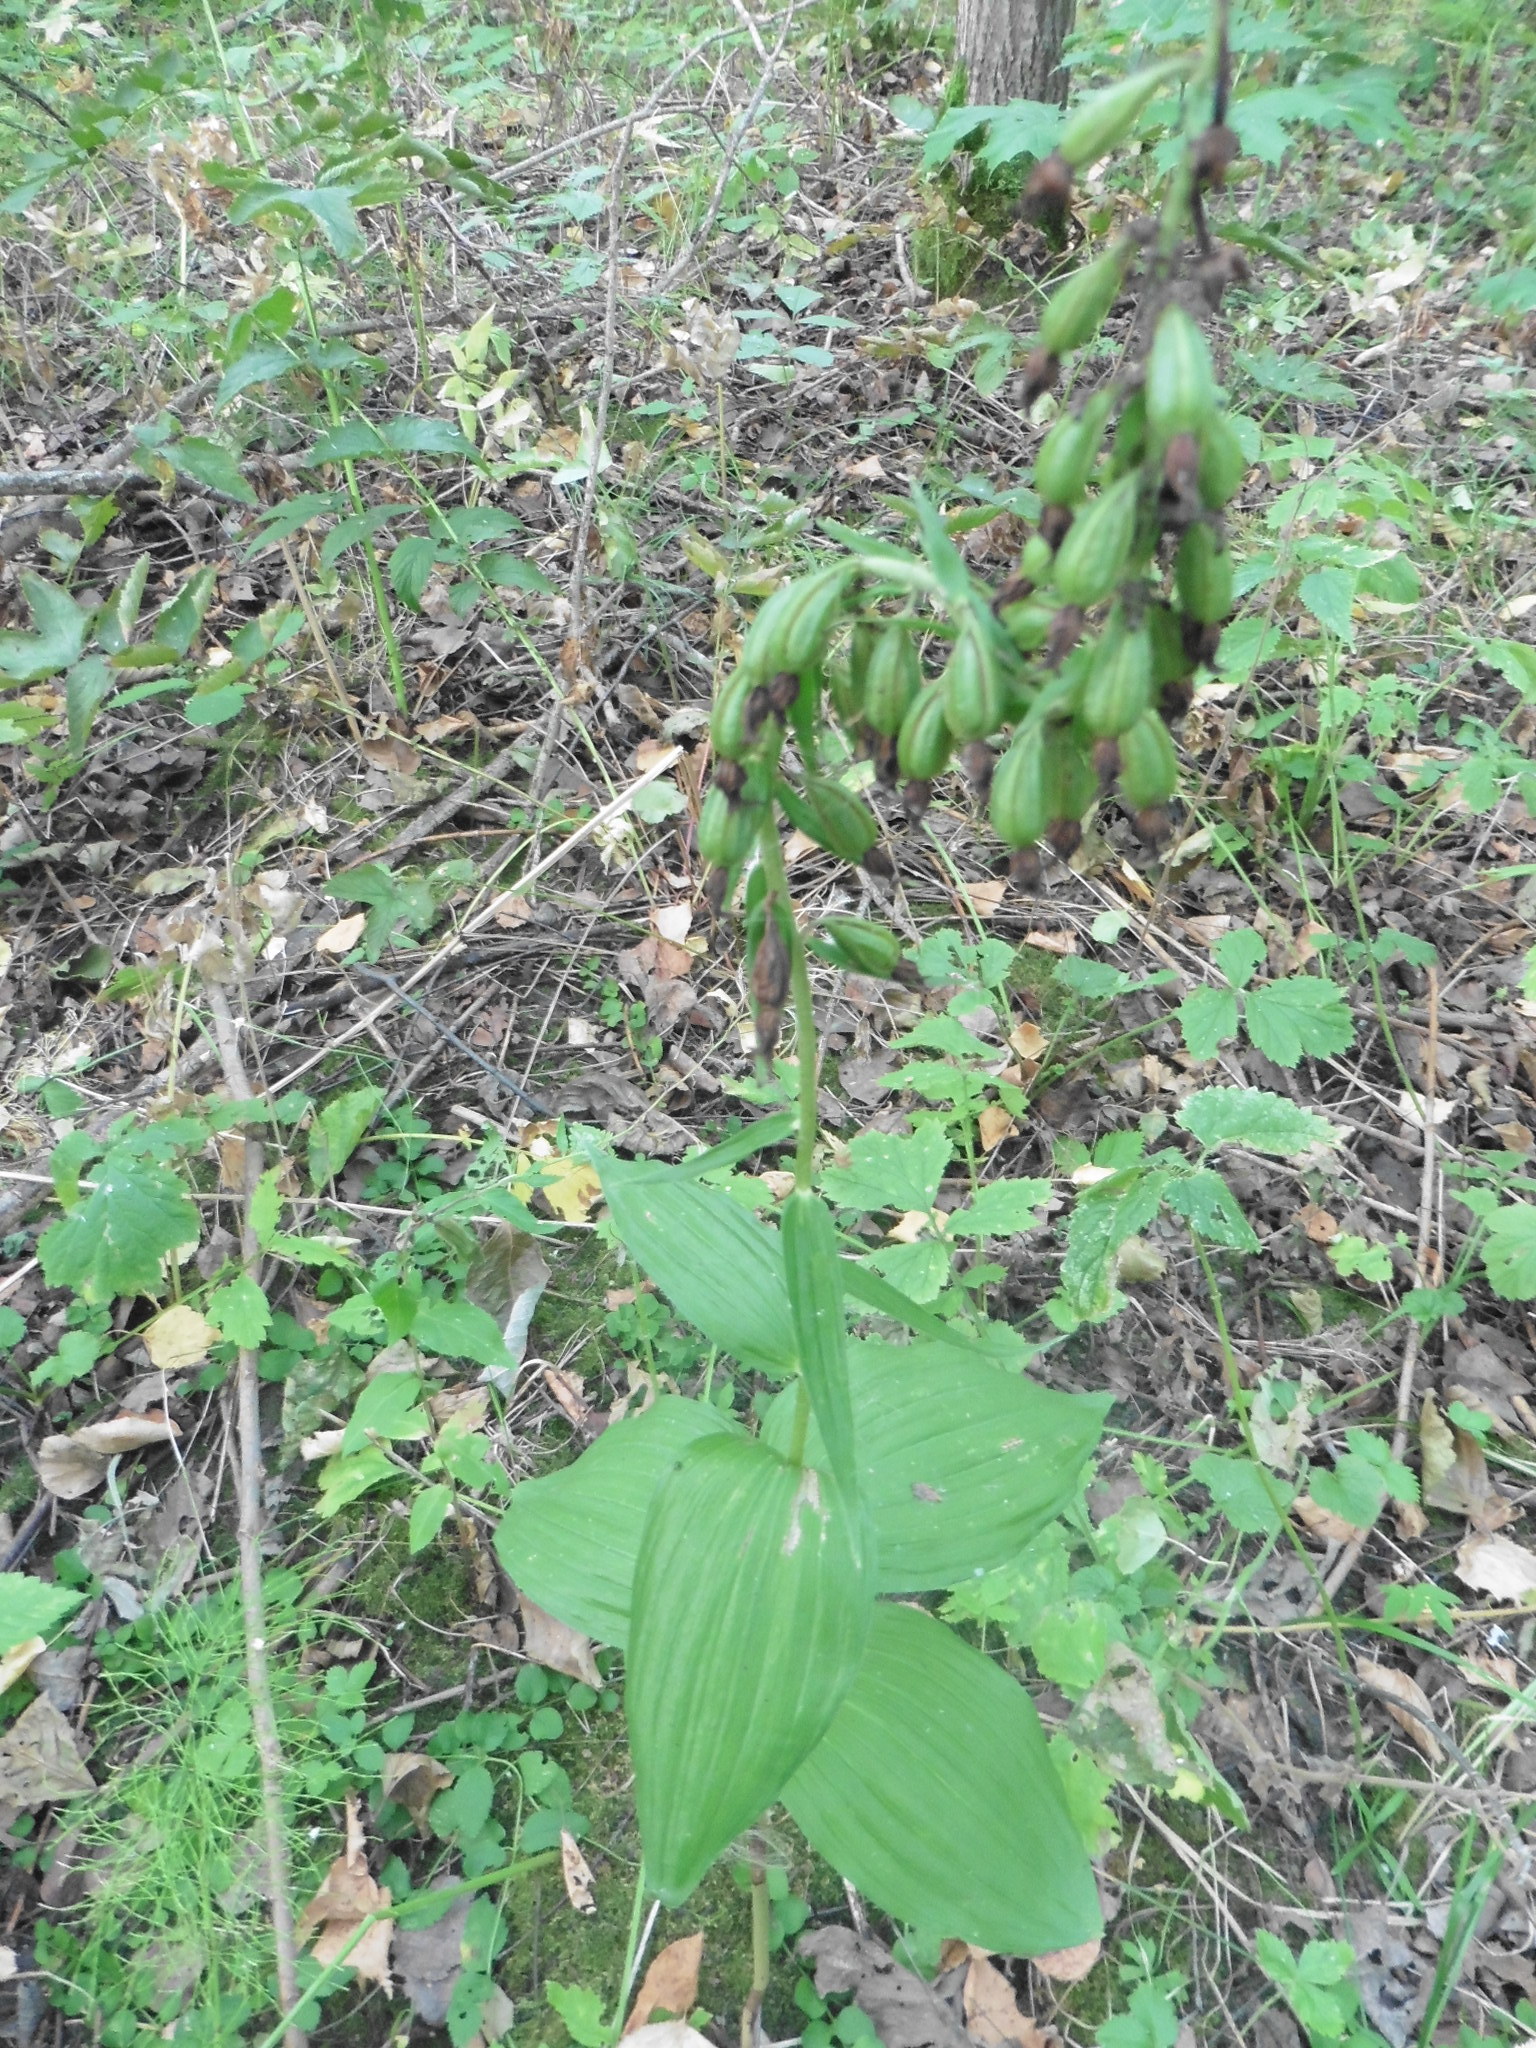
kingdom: Plantae
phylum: Tracheophyta
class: Liliopsida
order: Asparagales
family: Orchidaceae
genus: Epipactis
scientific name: Epipactis helleborine
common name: Broad-leaved helleborine
